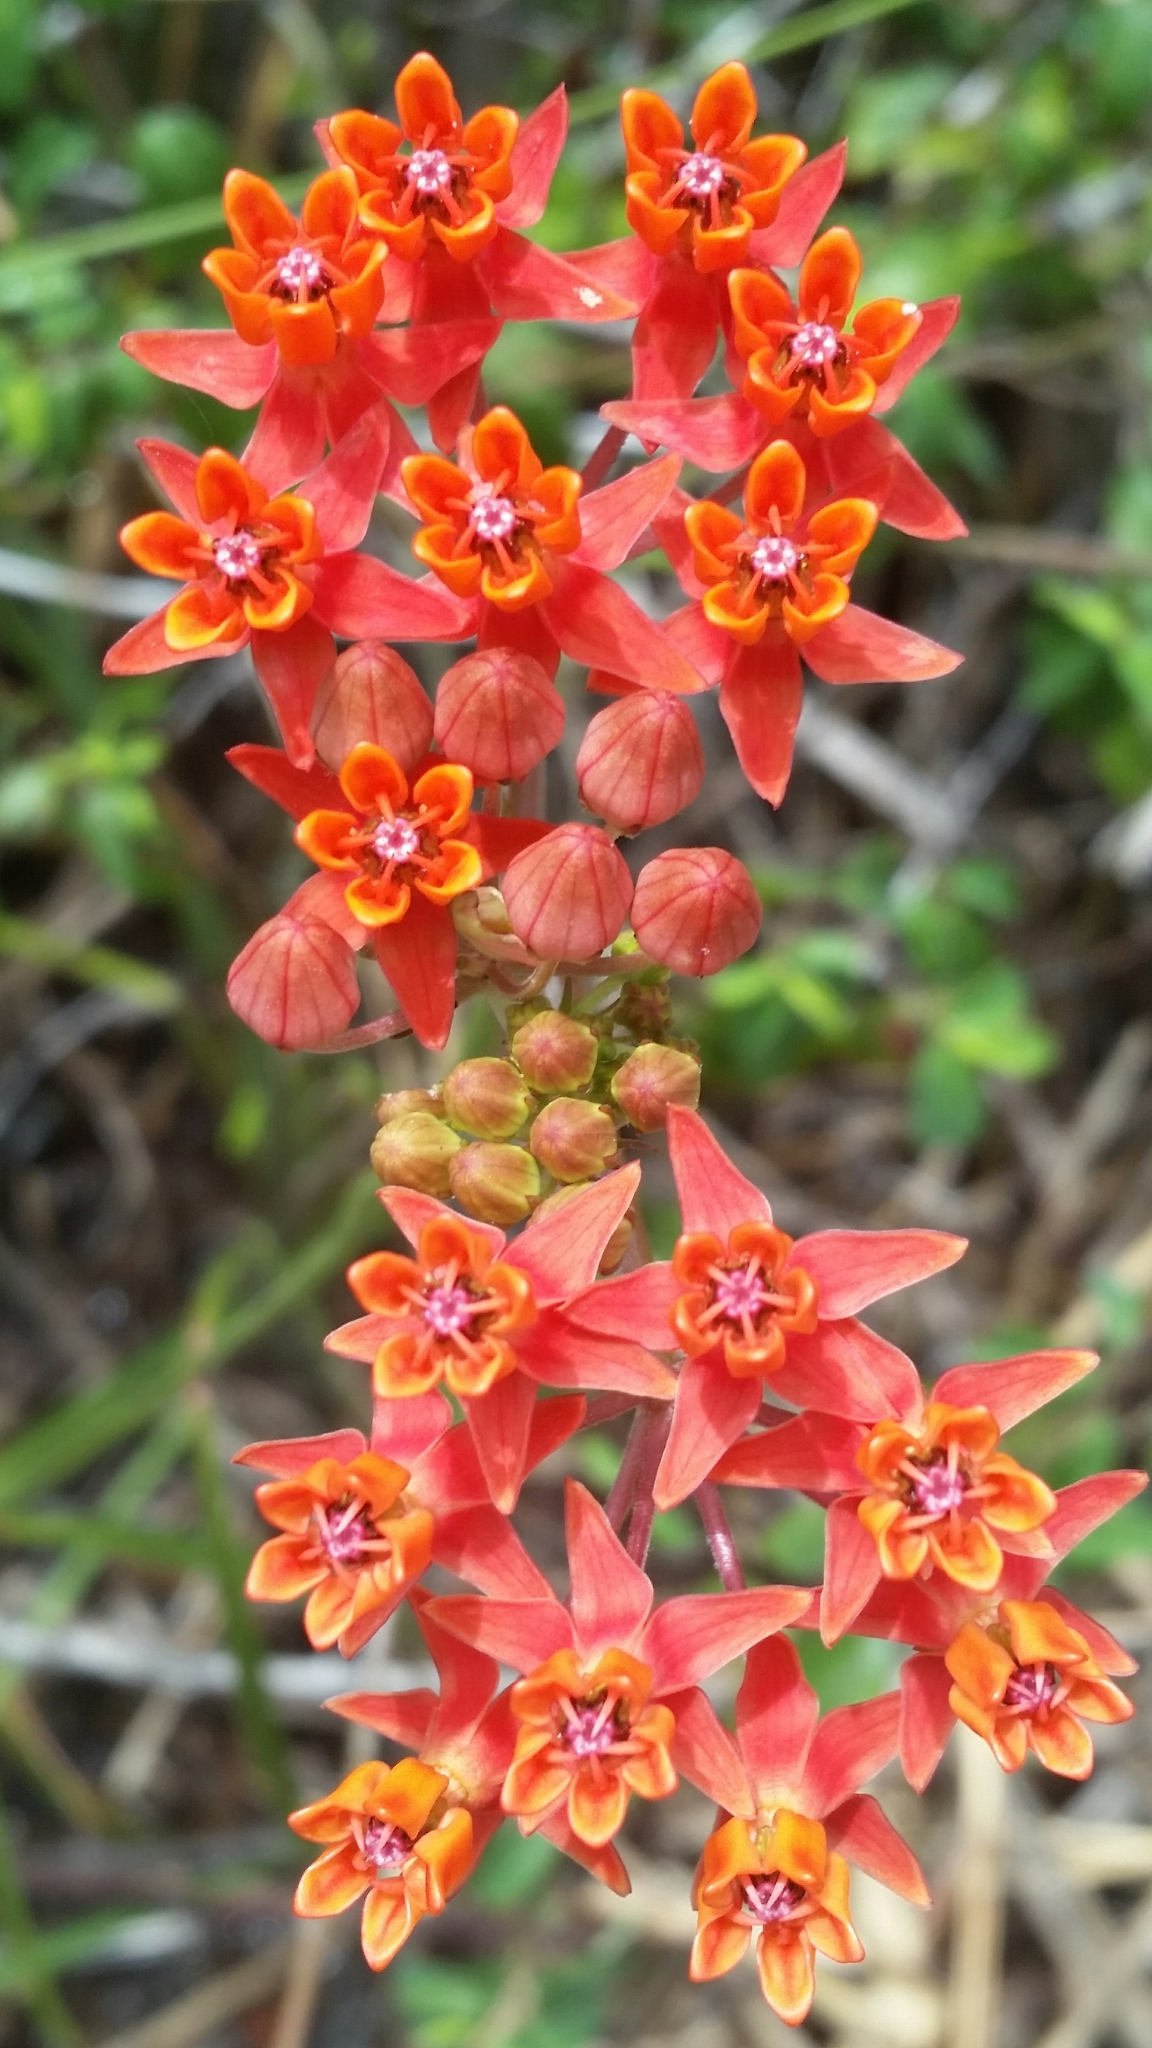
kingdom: Plantae
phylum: Tracheophyta
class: Magnoliopsida
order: Gentianales
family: Apocynaceae
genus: Asclepias
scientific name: Asclepias lanceolata
